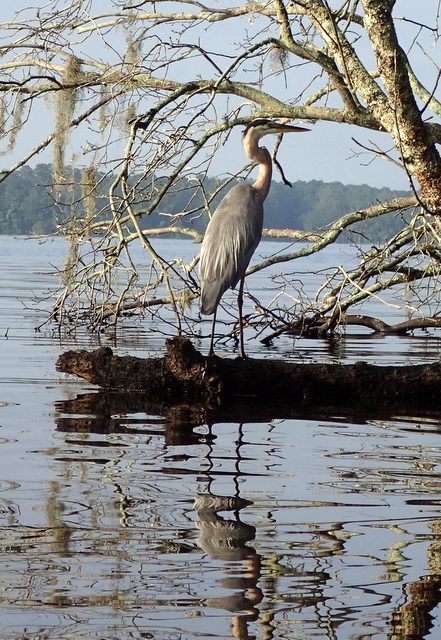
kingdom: Animalia
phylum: Chordata
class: Aves
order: Pelecaniformes
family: Ardeidae
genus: Ardea
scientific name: Ardea herodias
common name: Great blue heron
